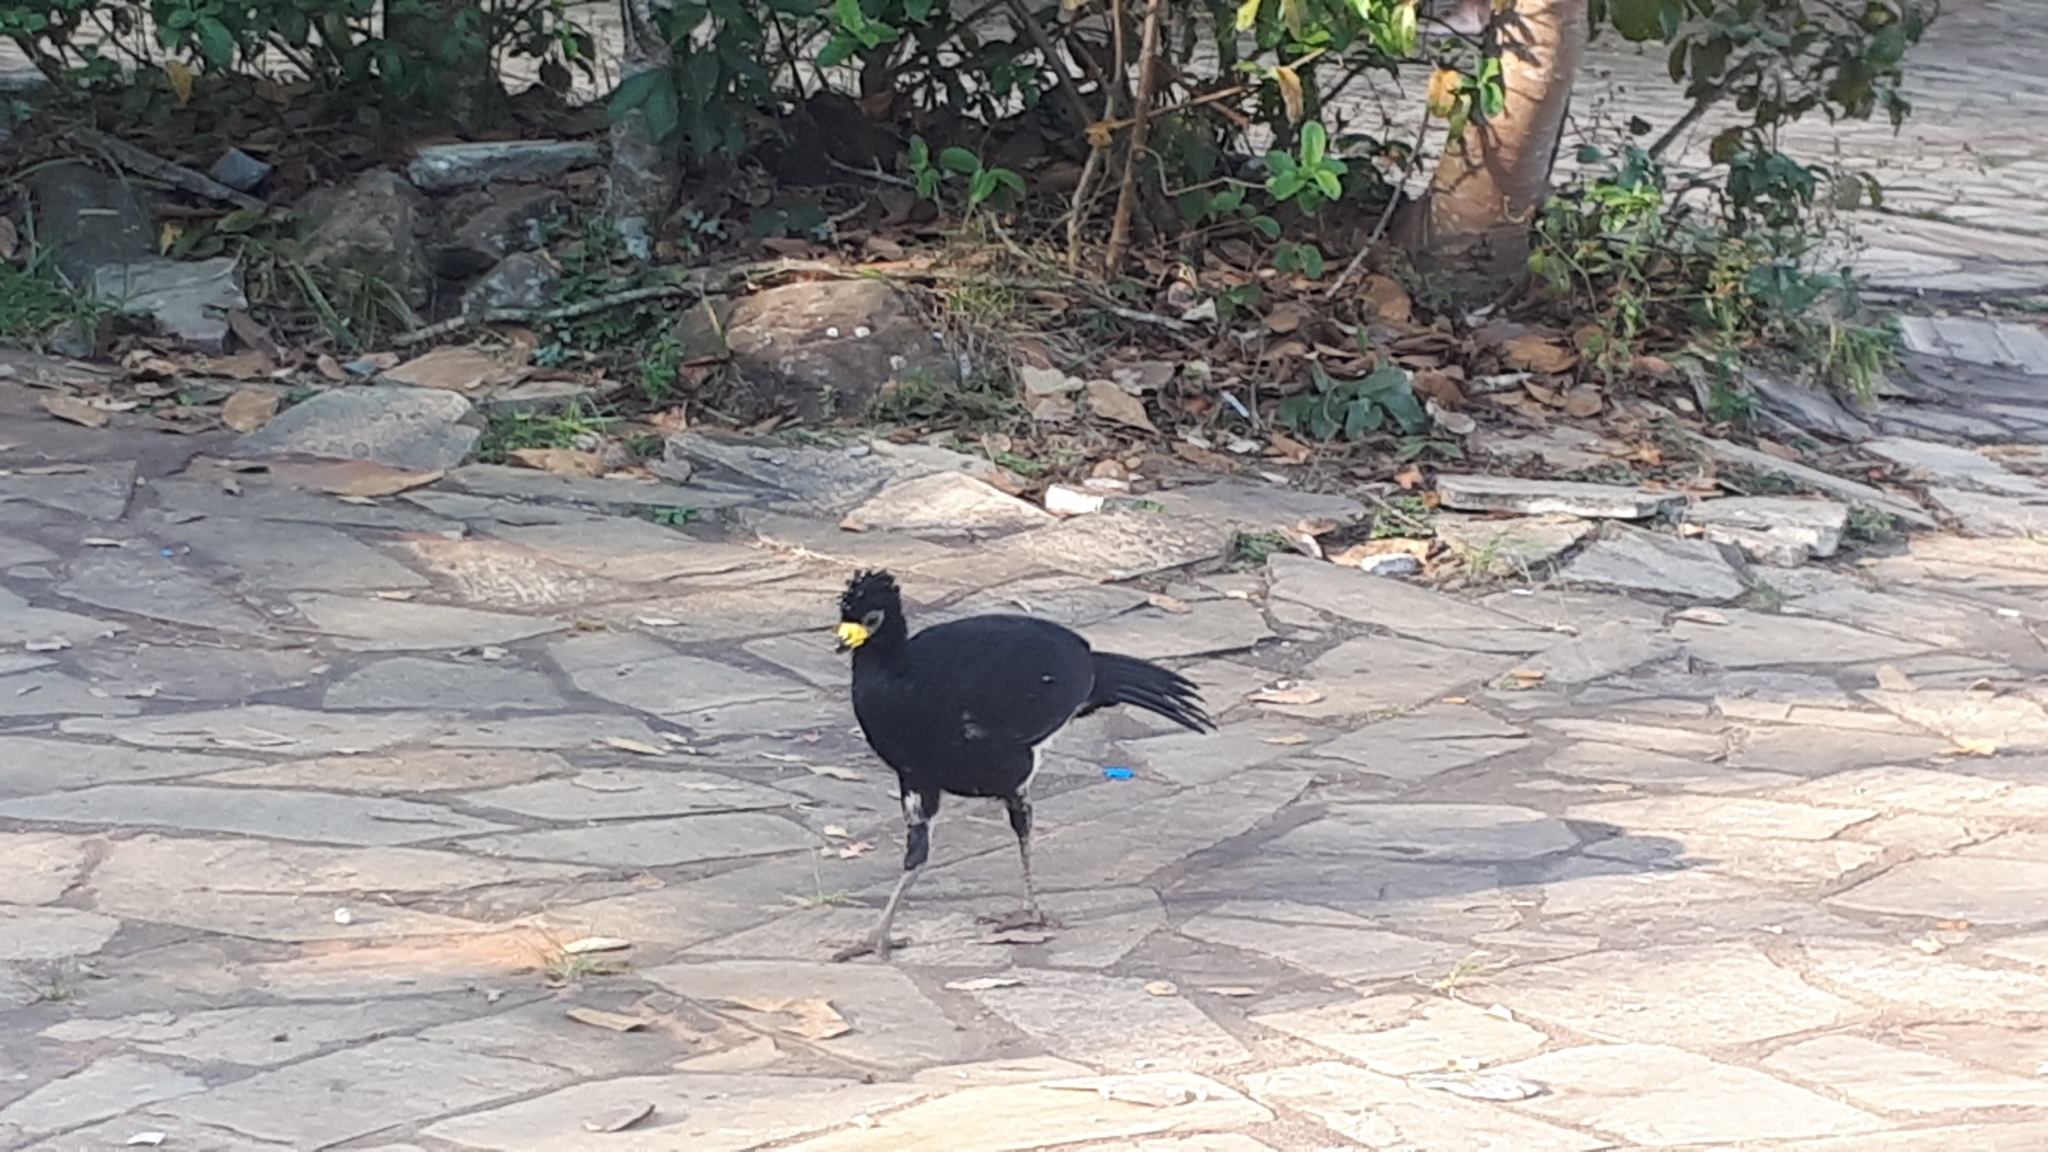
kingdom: Animalia
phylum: Chordata
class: Aves
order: Galliformes
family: Cracidae
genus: Crax
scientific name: Crax fasciolata
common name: Bare-faced curassow
